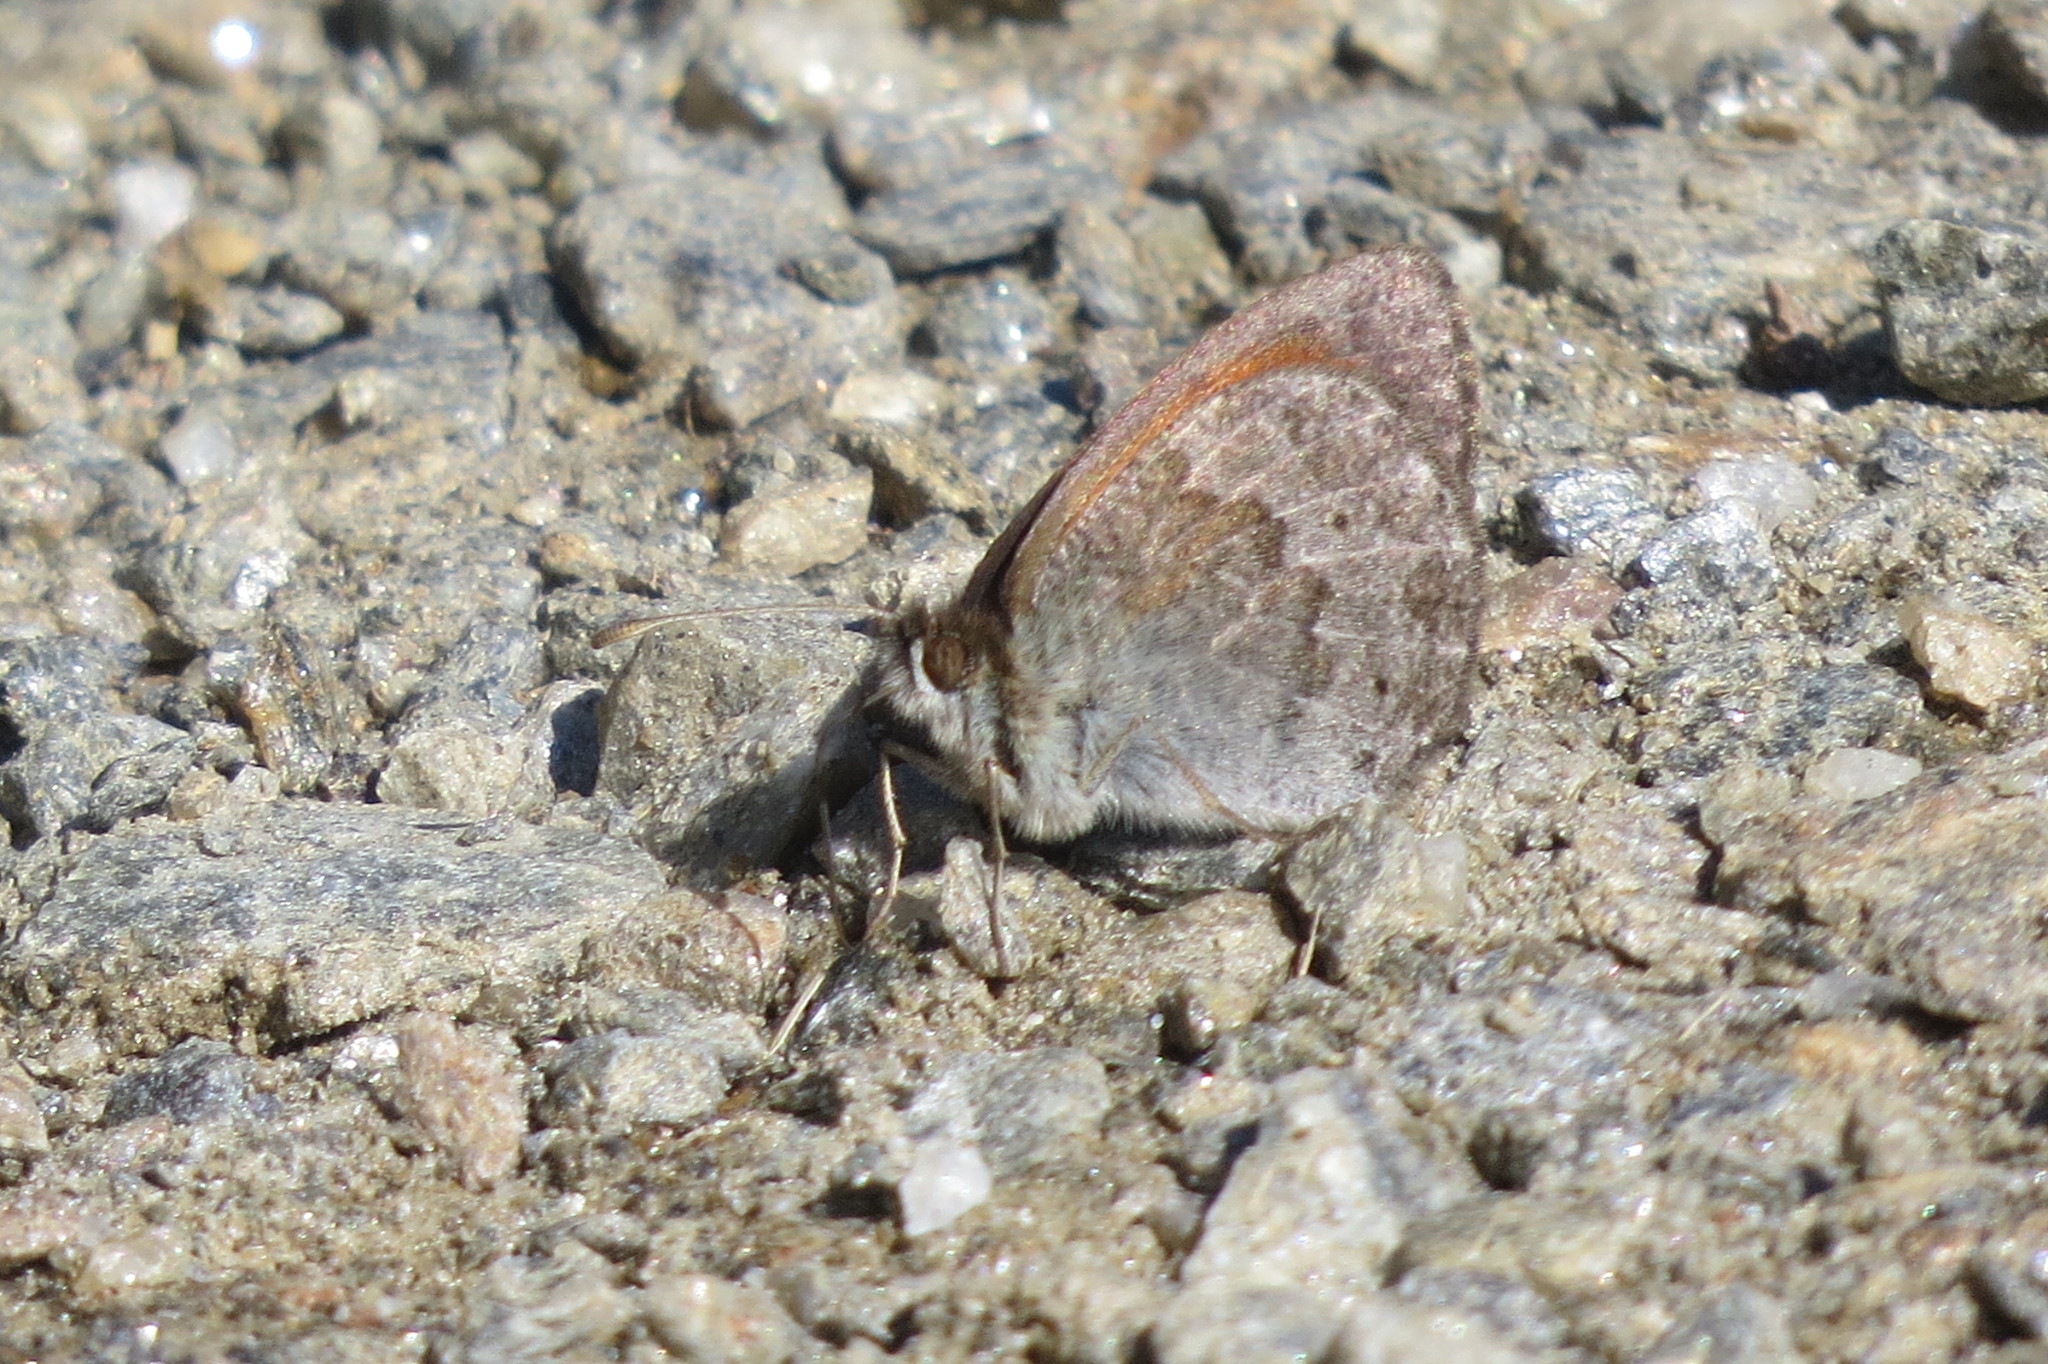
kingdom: Animalia
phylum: Arthropoda
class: Insecta
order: Lepidoptera
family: Nymphalidae
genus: Erebia
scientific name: Erebia cassioides
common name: Common brassy ringlet
